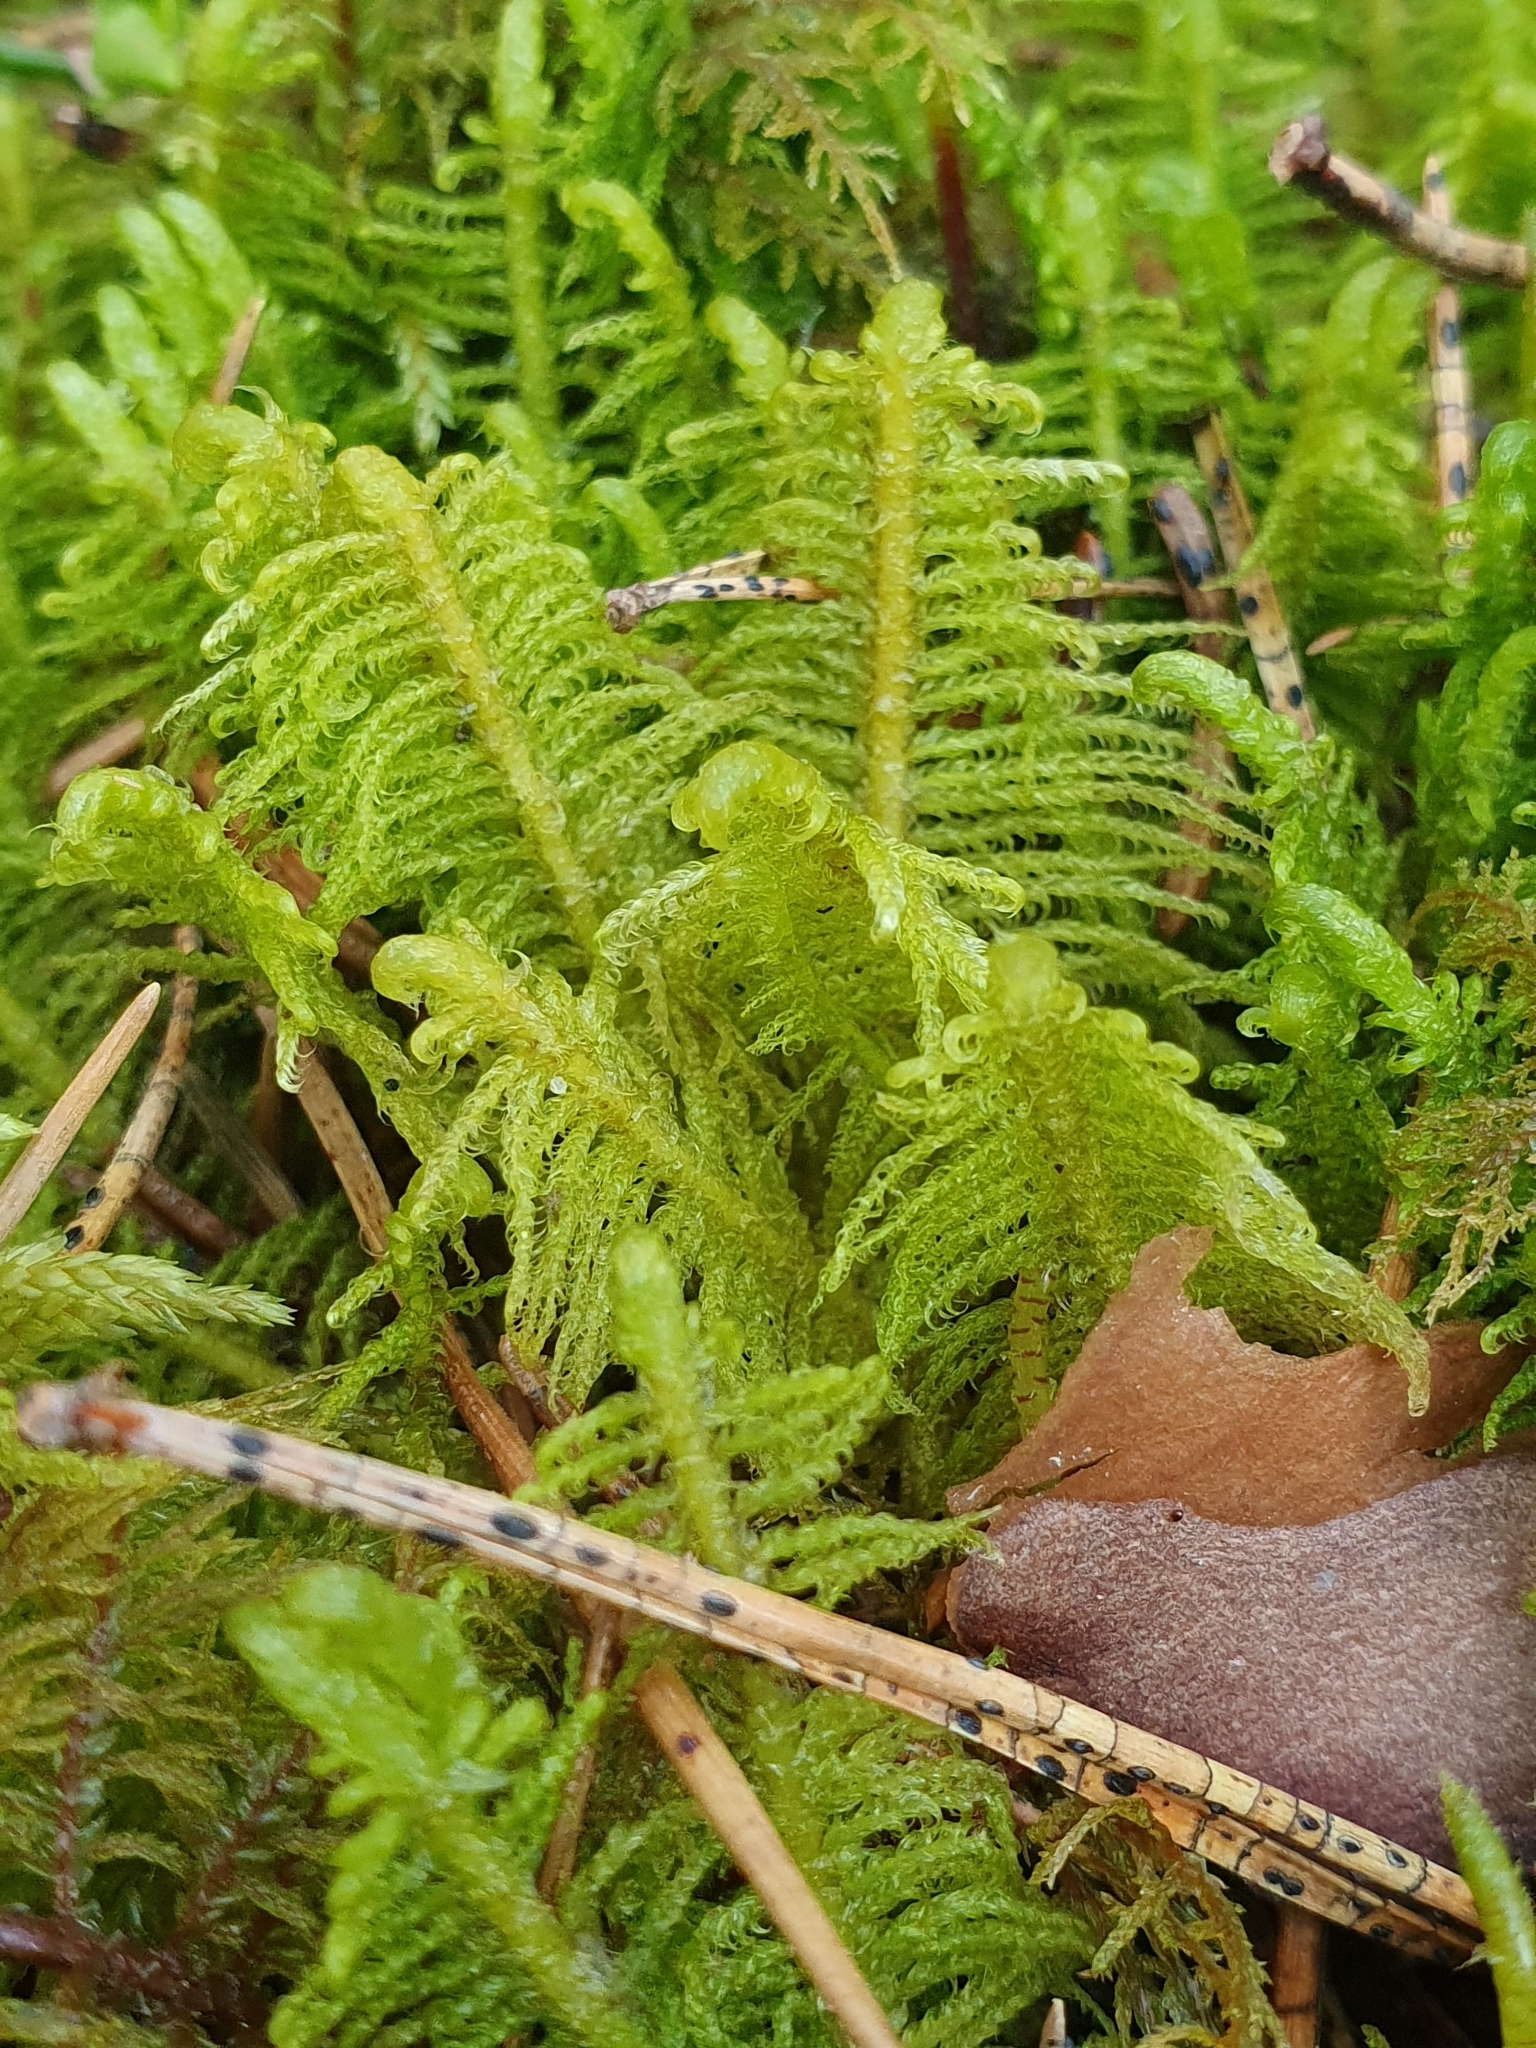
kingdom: Plantae
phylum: Bryophyta
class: Bryopsida
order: Hypnales
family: Pylaisiaceae
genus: Ptilium
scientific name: Ptilium crista-castrensis
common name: Knight's plume moss
